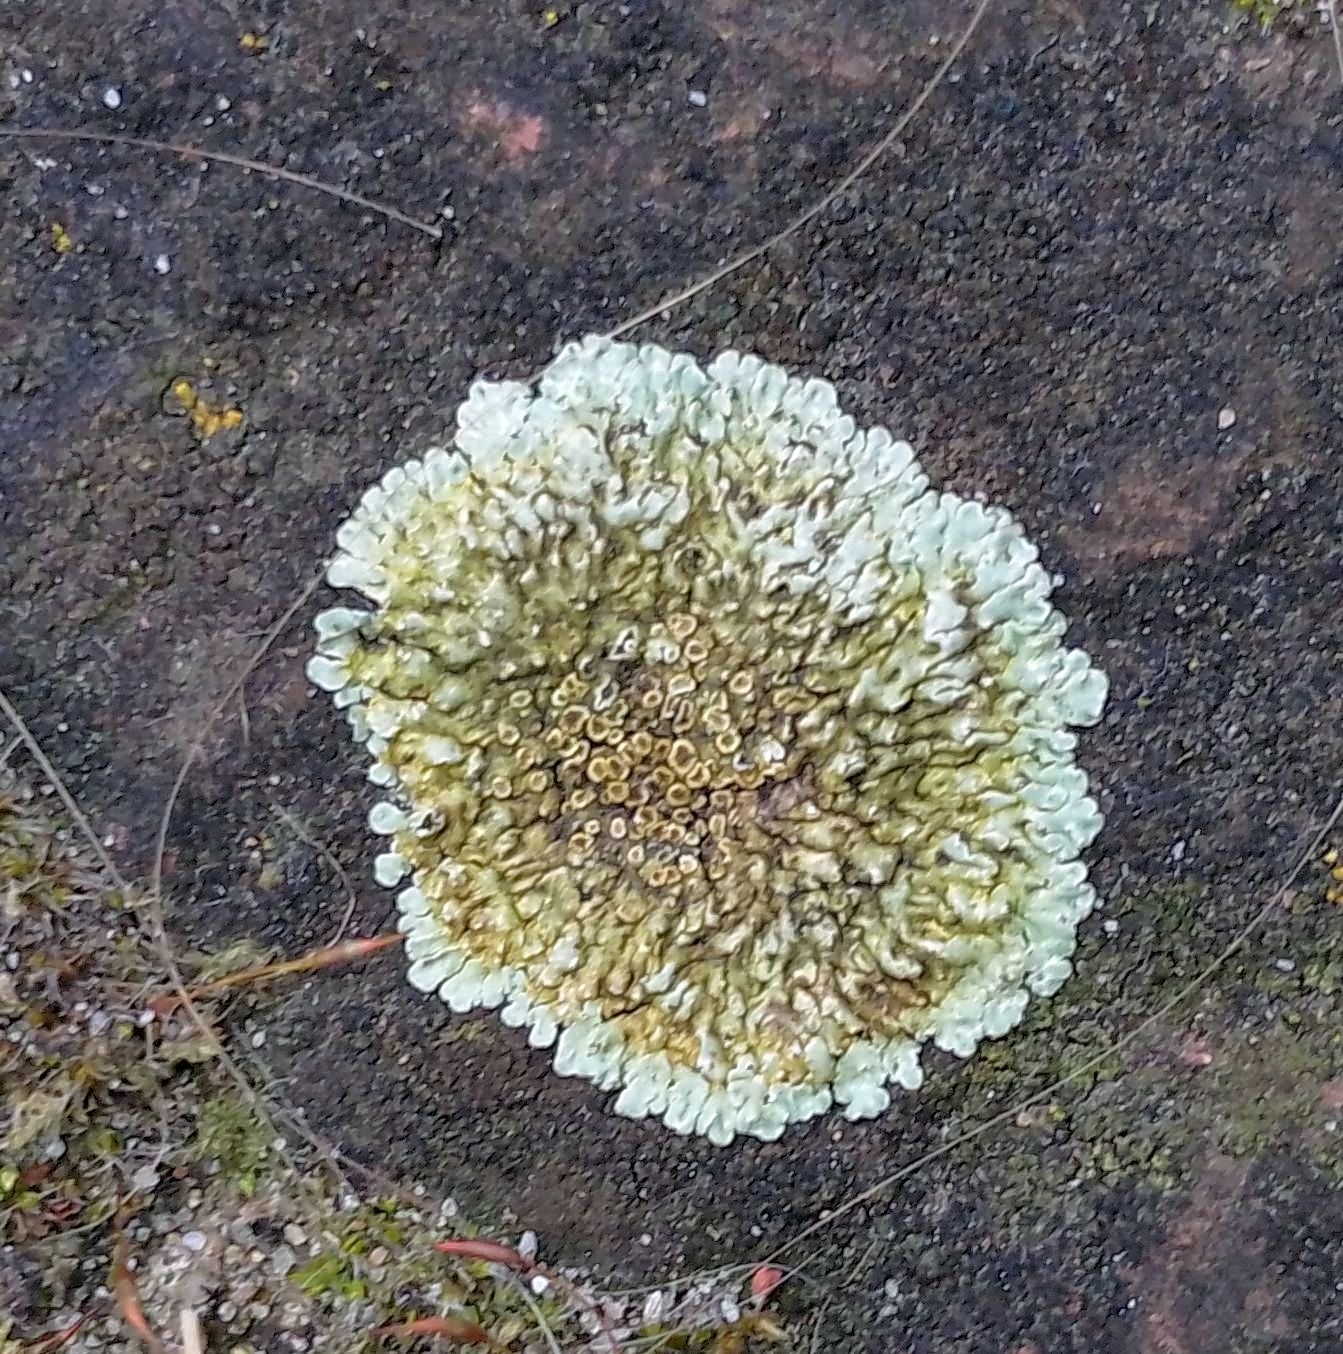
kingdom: Fungi
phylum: Ascomycota
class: Lecanoromycetes
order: Lecanorales
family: Lecanoraceae
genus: Protoparmeliopsis
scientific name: Protoparmeliopsis muralis
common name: Stonewall rim lichen
